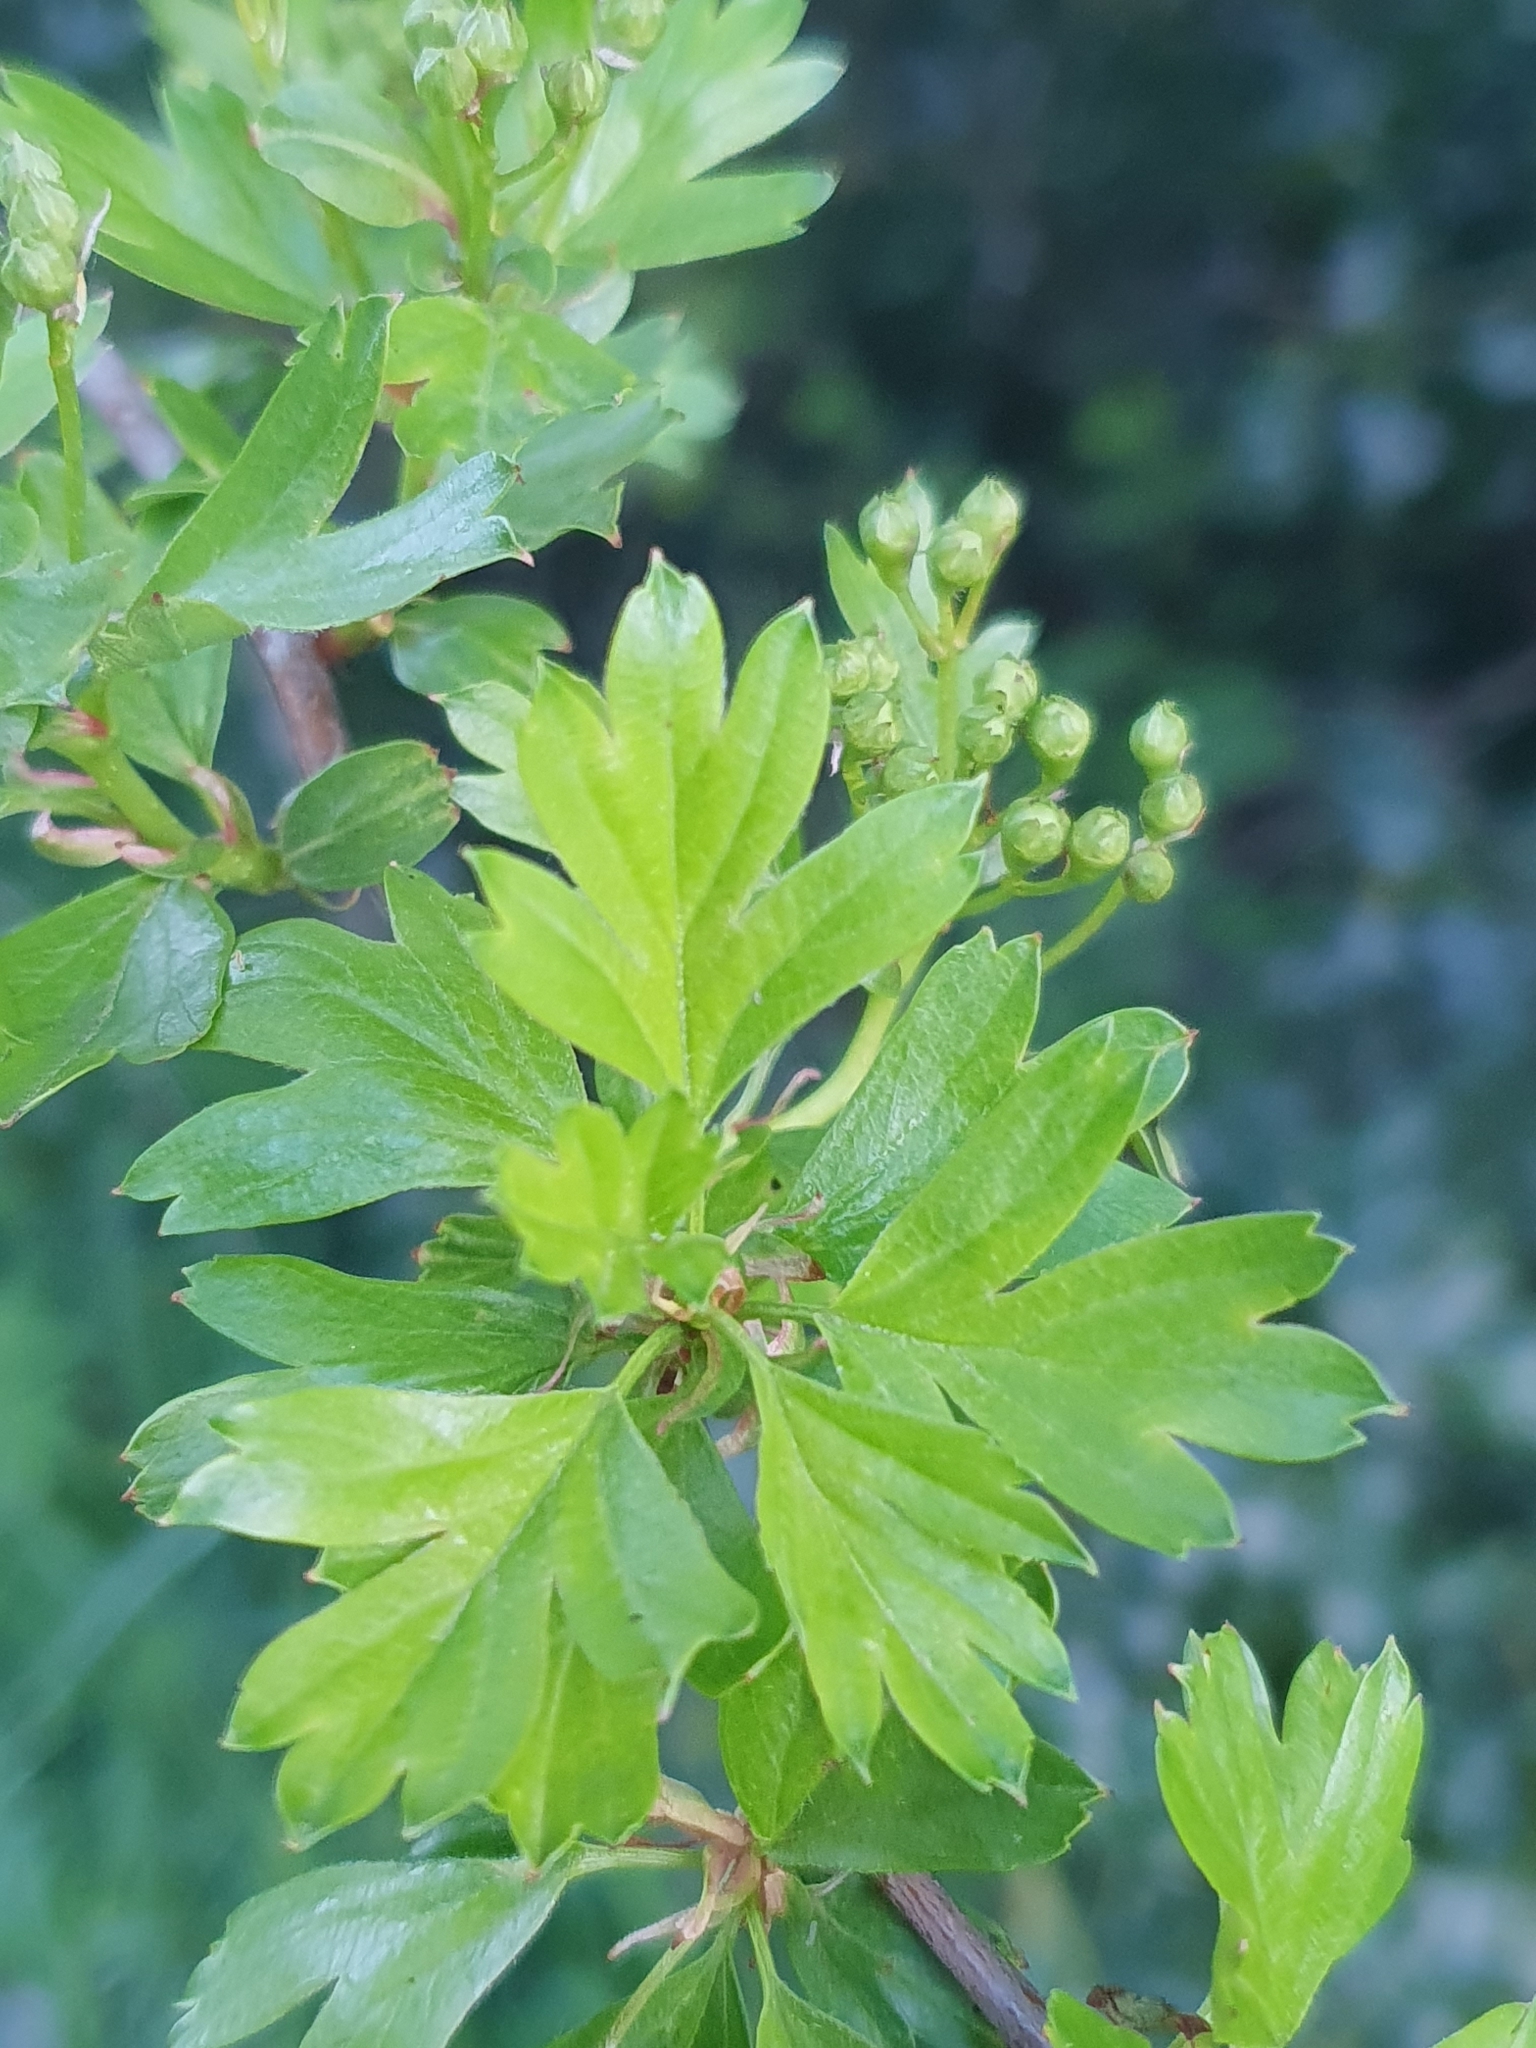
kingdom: Plantae
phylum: Tracheophyta
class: Magnoliopsida
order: Rosales
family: Rosaceae
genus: Crataegus
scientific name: Crataegus monogyna
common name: Hawthorn
